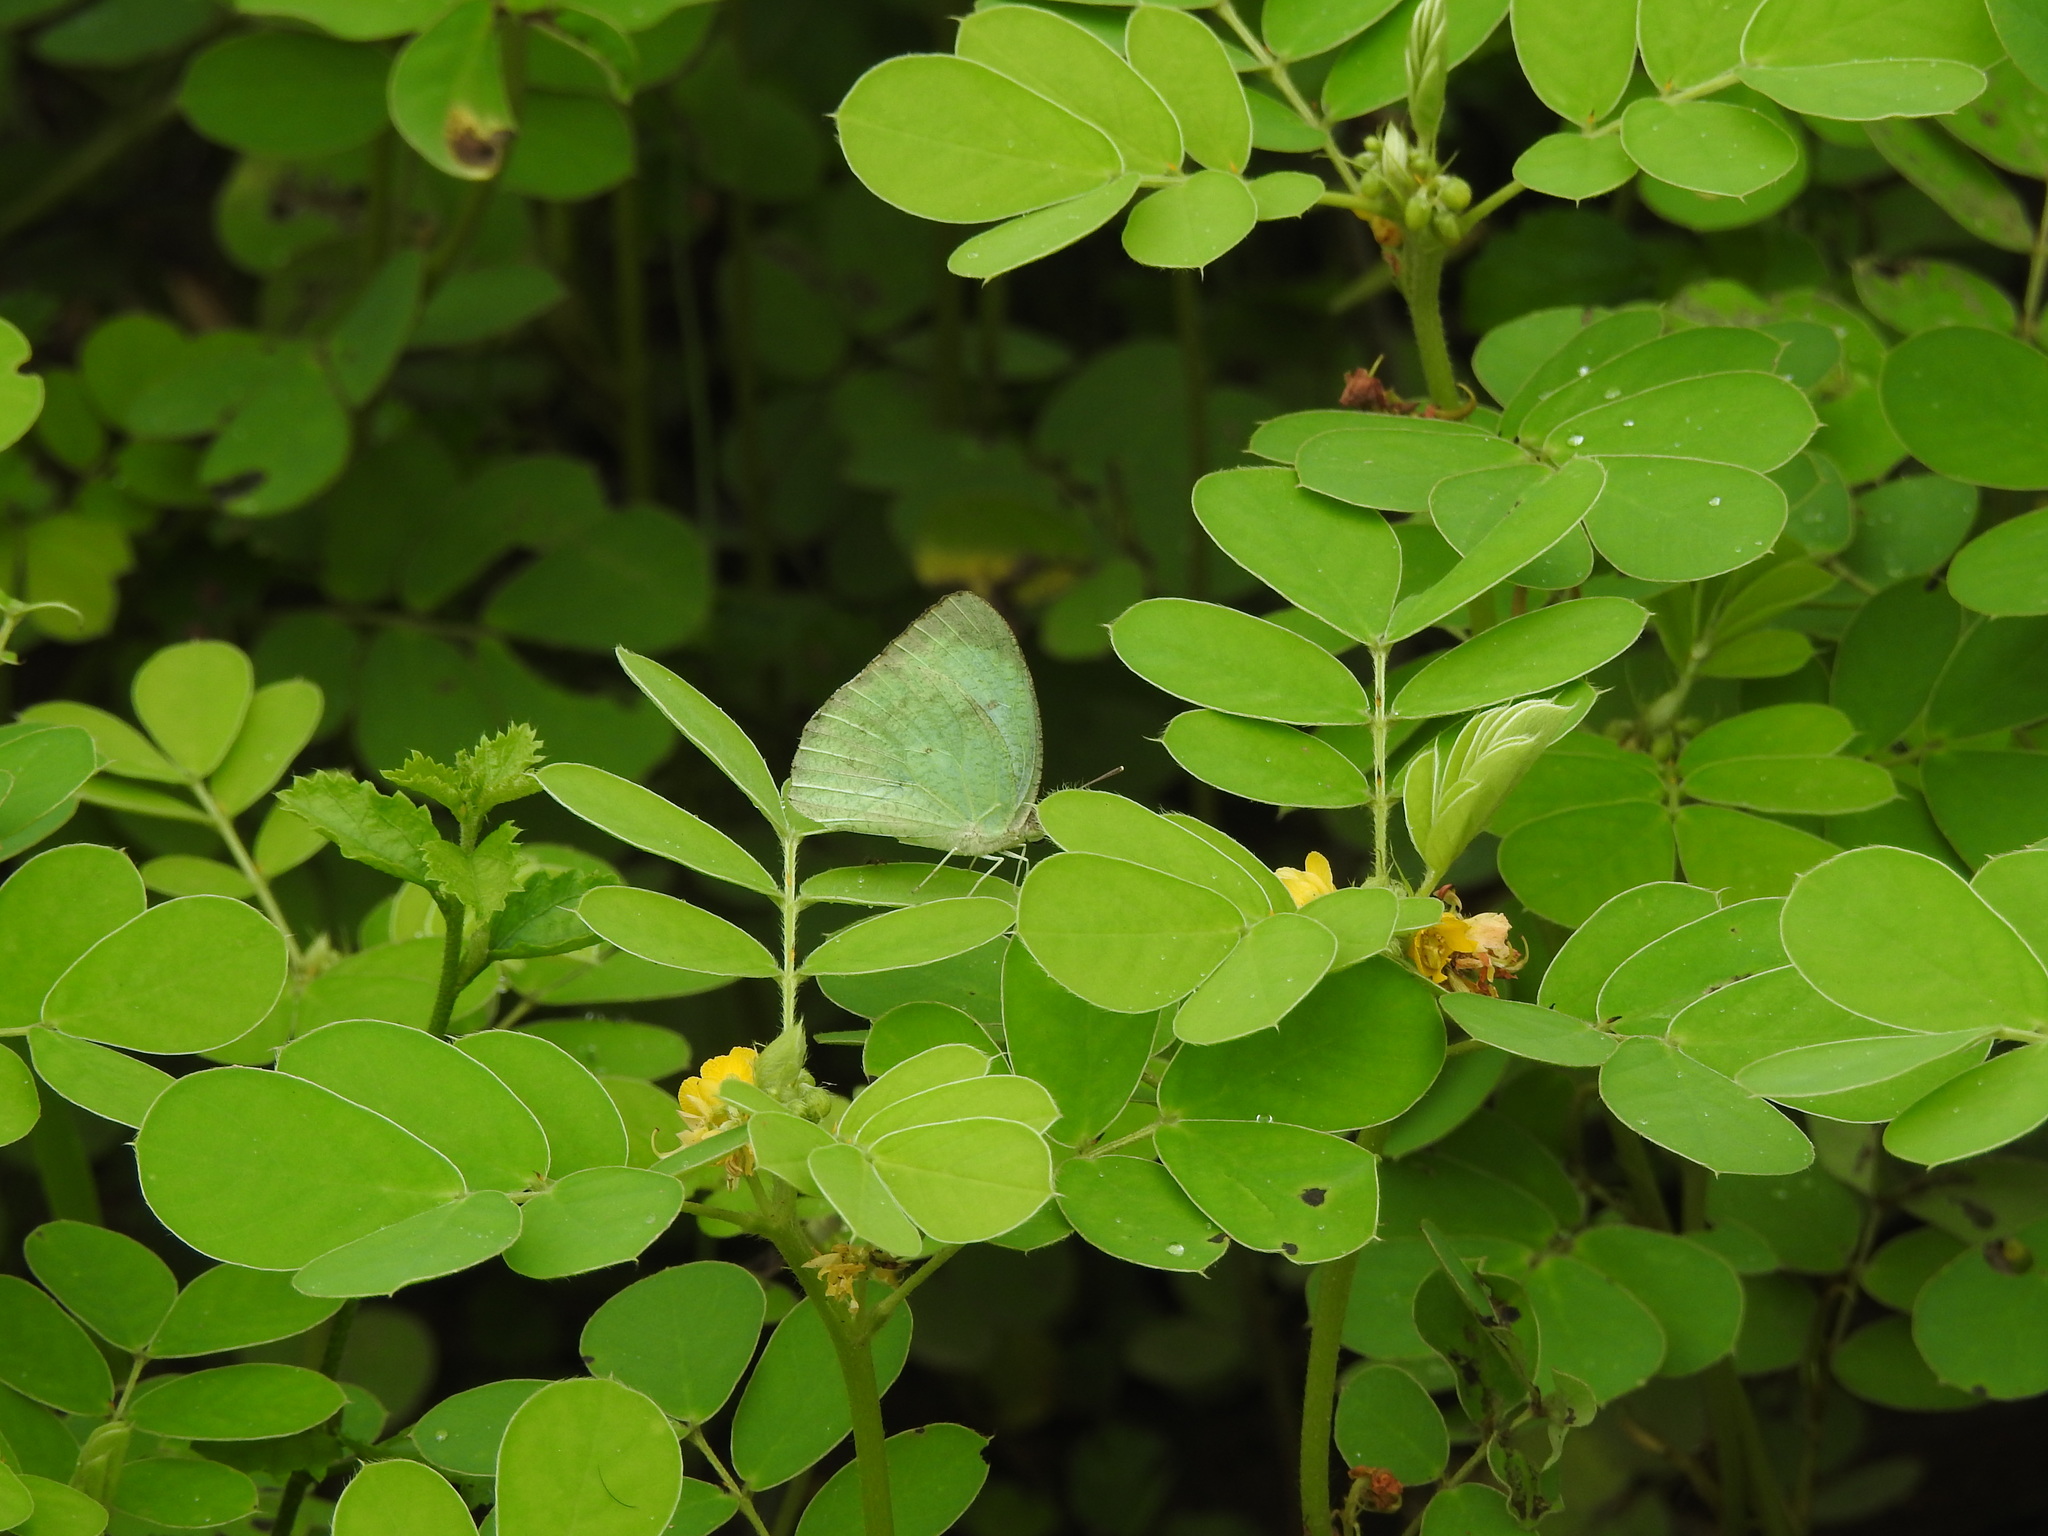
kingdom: Animalia
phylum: Arthropoda
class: Insecta
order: Lepidoptera
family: Pieridae
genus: Catopsilia
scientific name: Catopsilia pyranthe
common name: Mottled emigrant
